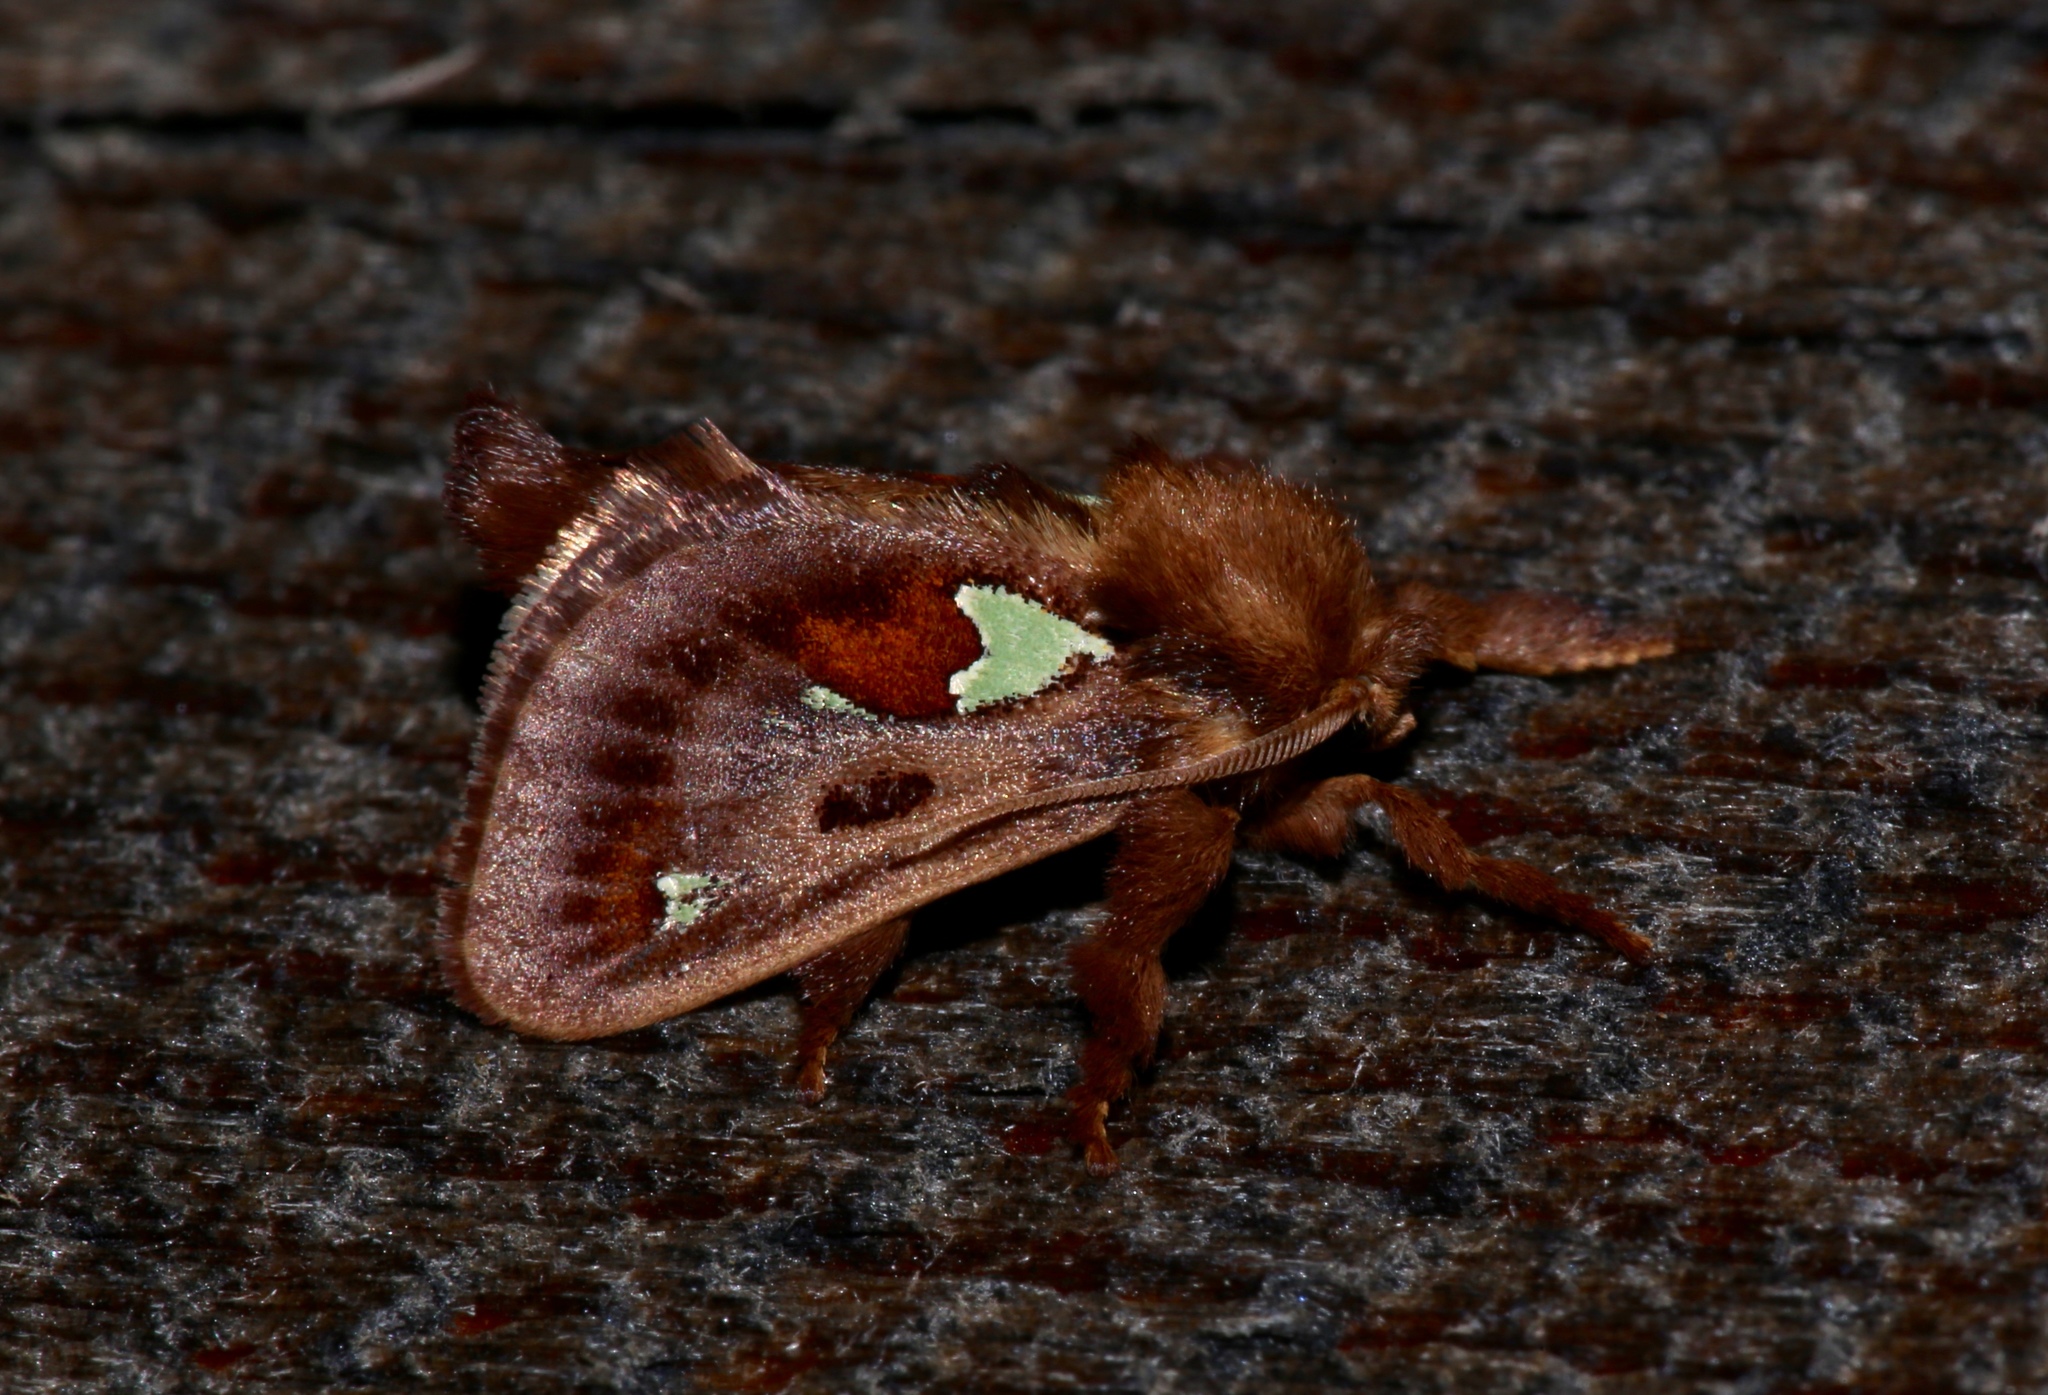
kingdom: Animalia
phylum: Arthropoda
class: Insecta
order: Lepidoptera
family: Limacodidae
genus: Euclea
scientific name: Euclea delphinii
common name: Spiny oak-slug moth
